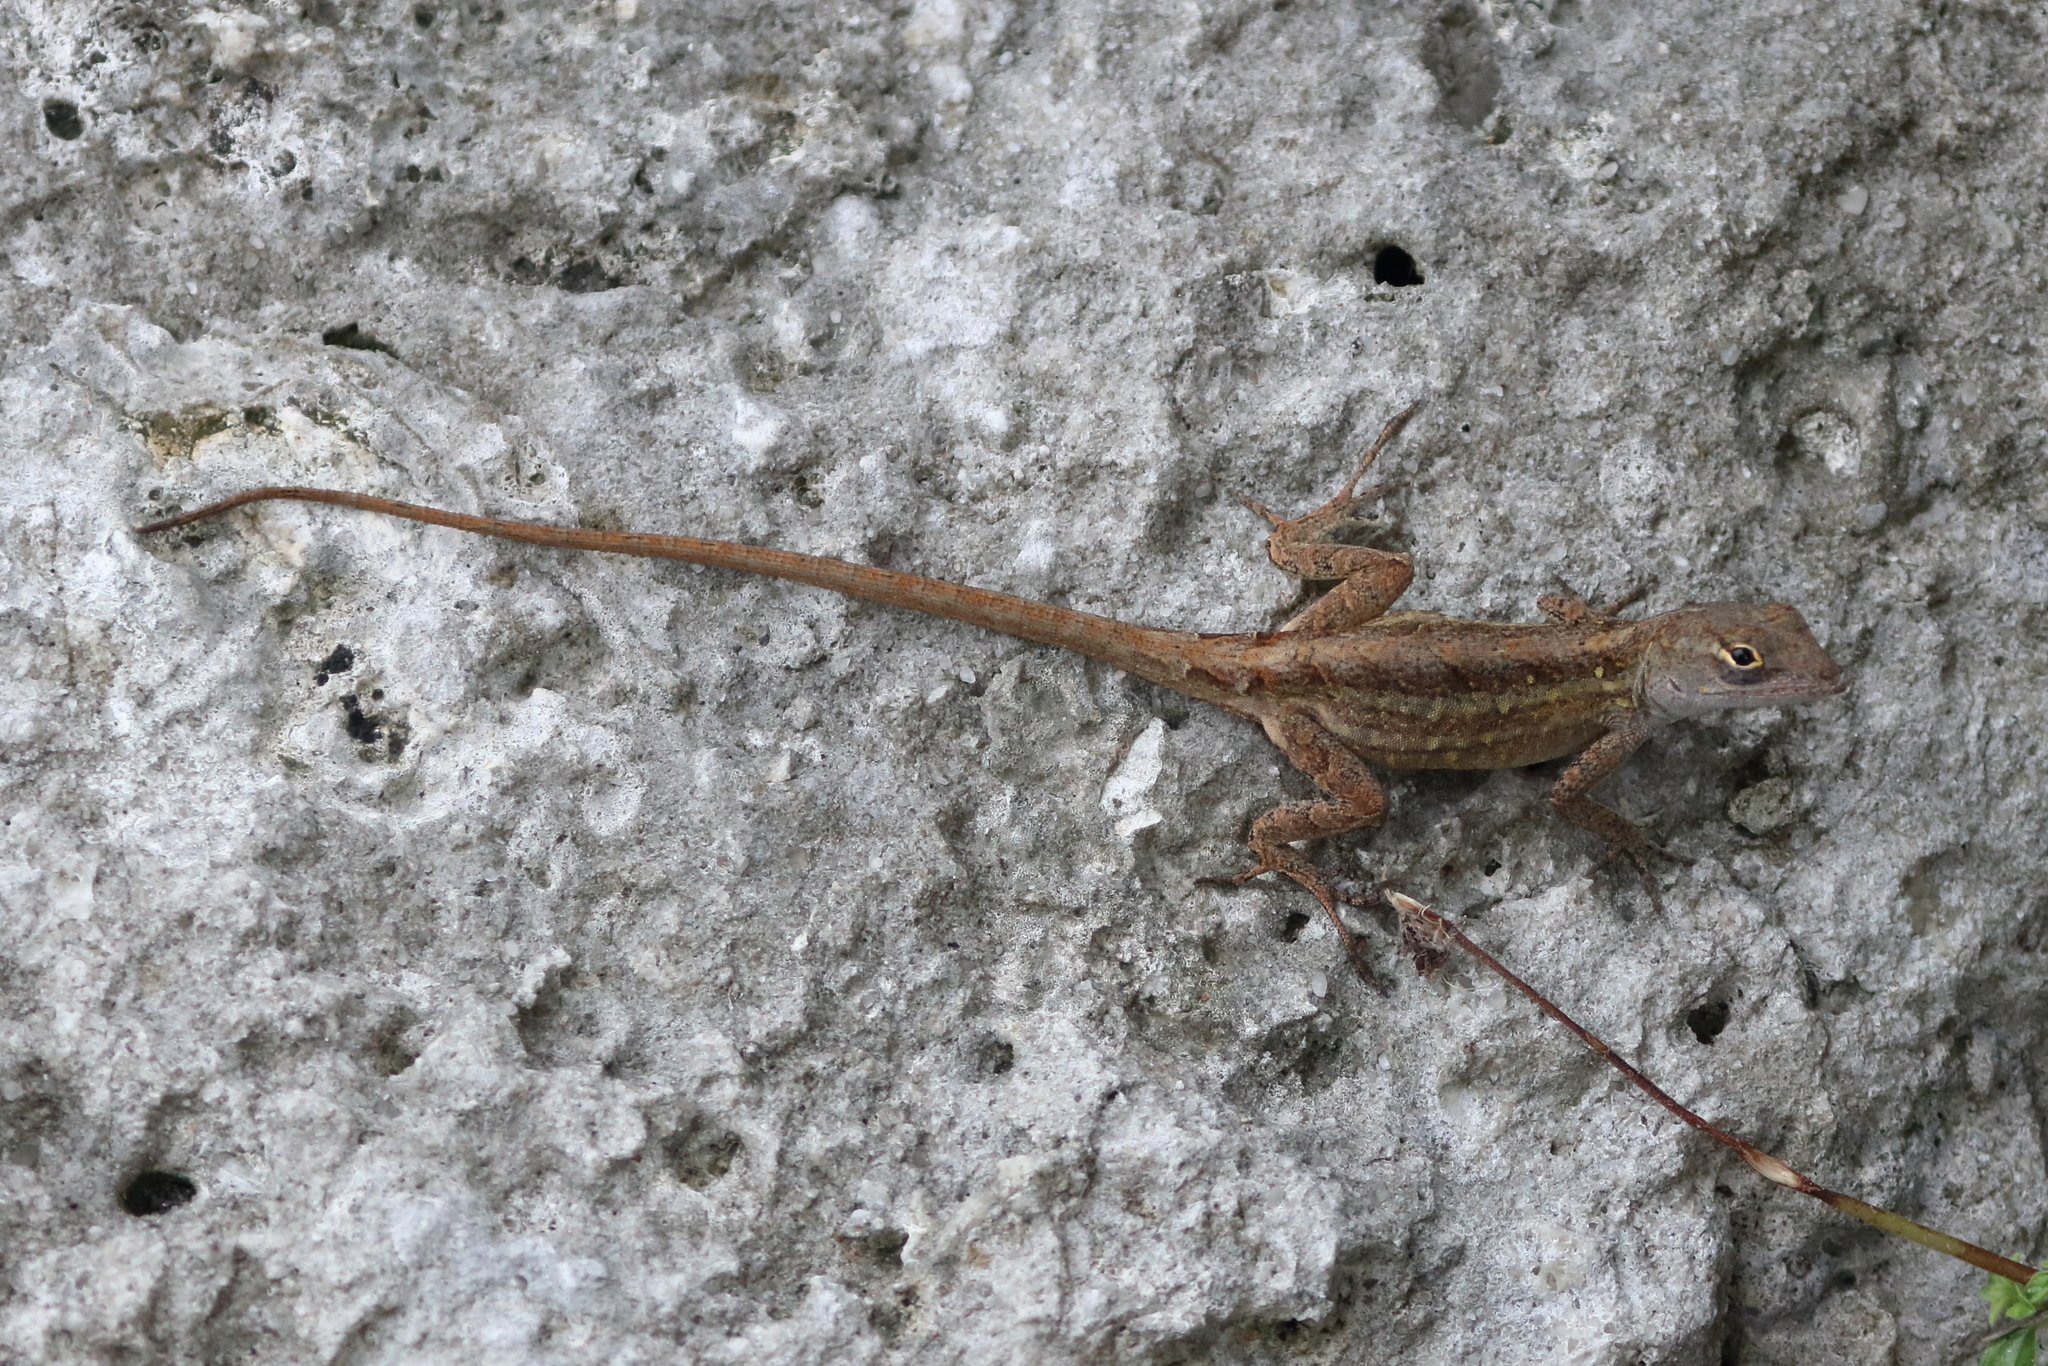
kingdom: Animalia
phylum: Chordata
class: Squamata
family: Dactyloidae
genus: Anolis
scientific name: Anolis sagrei
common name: Brown anole
